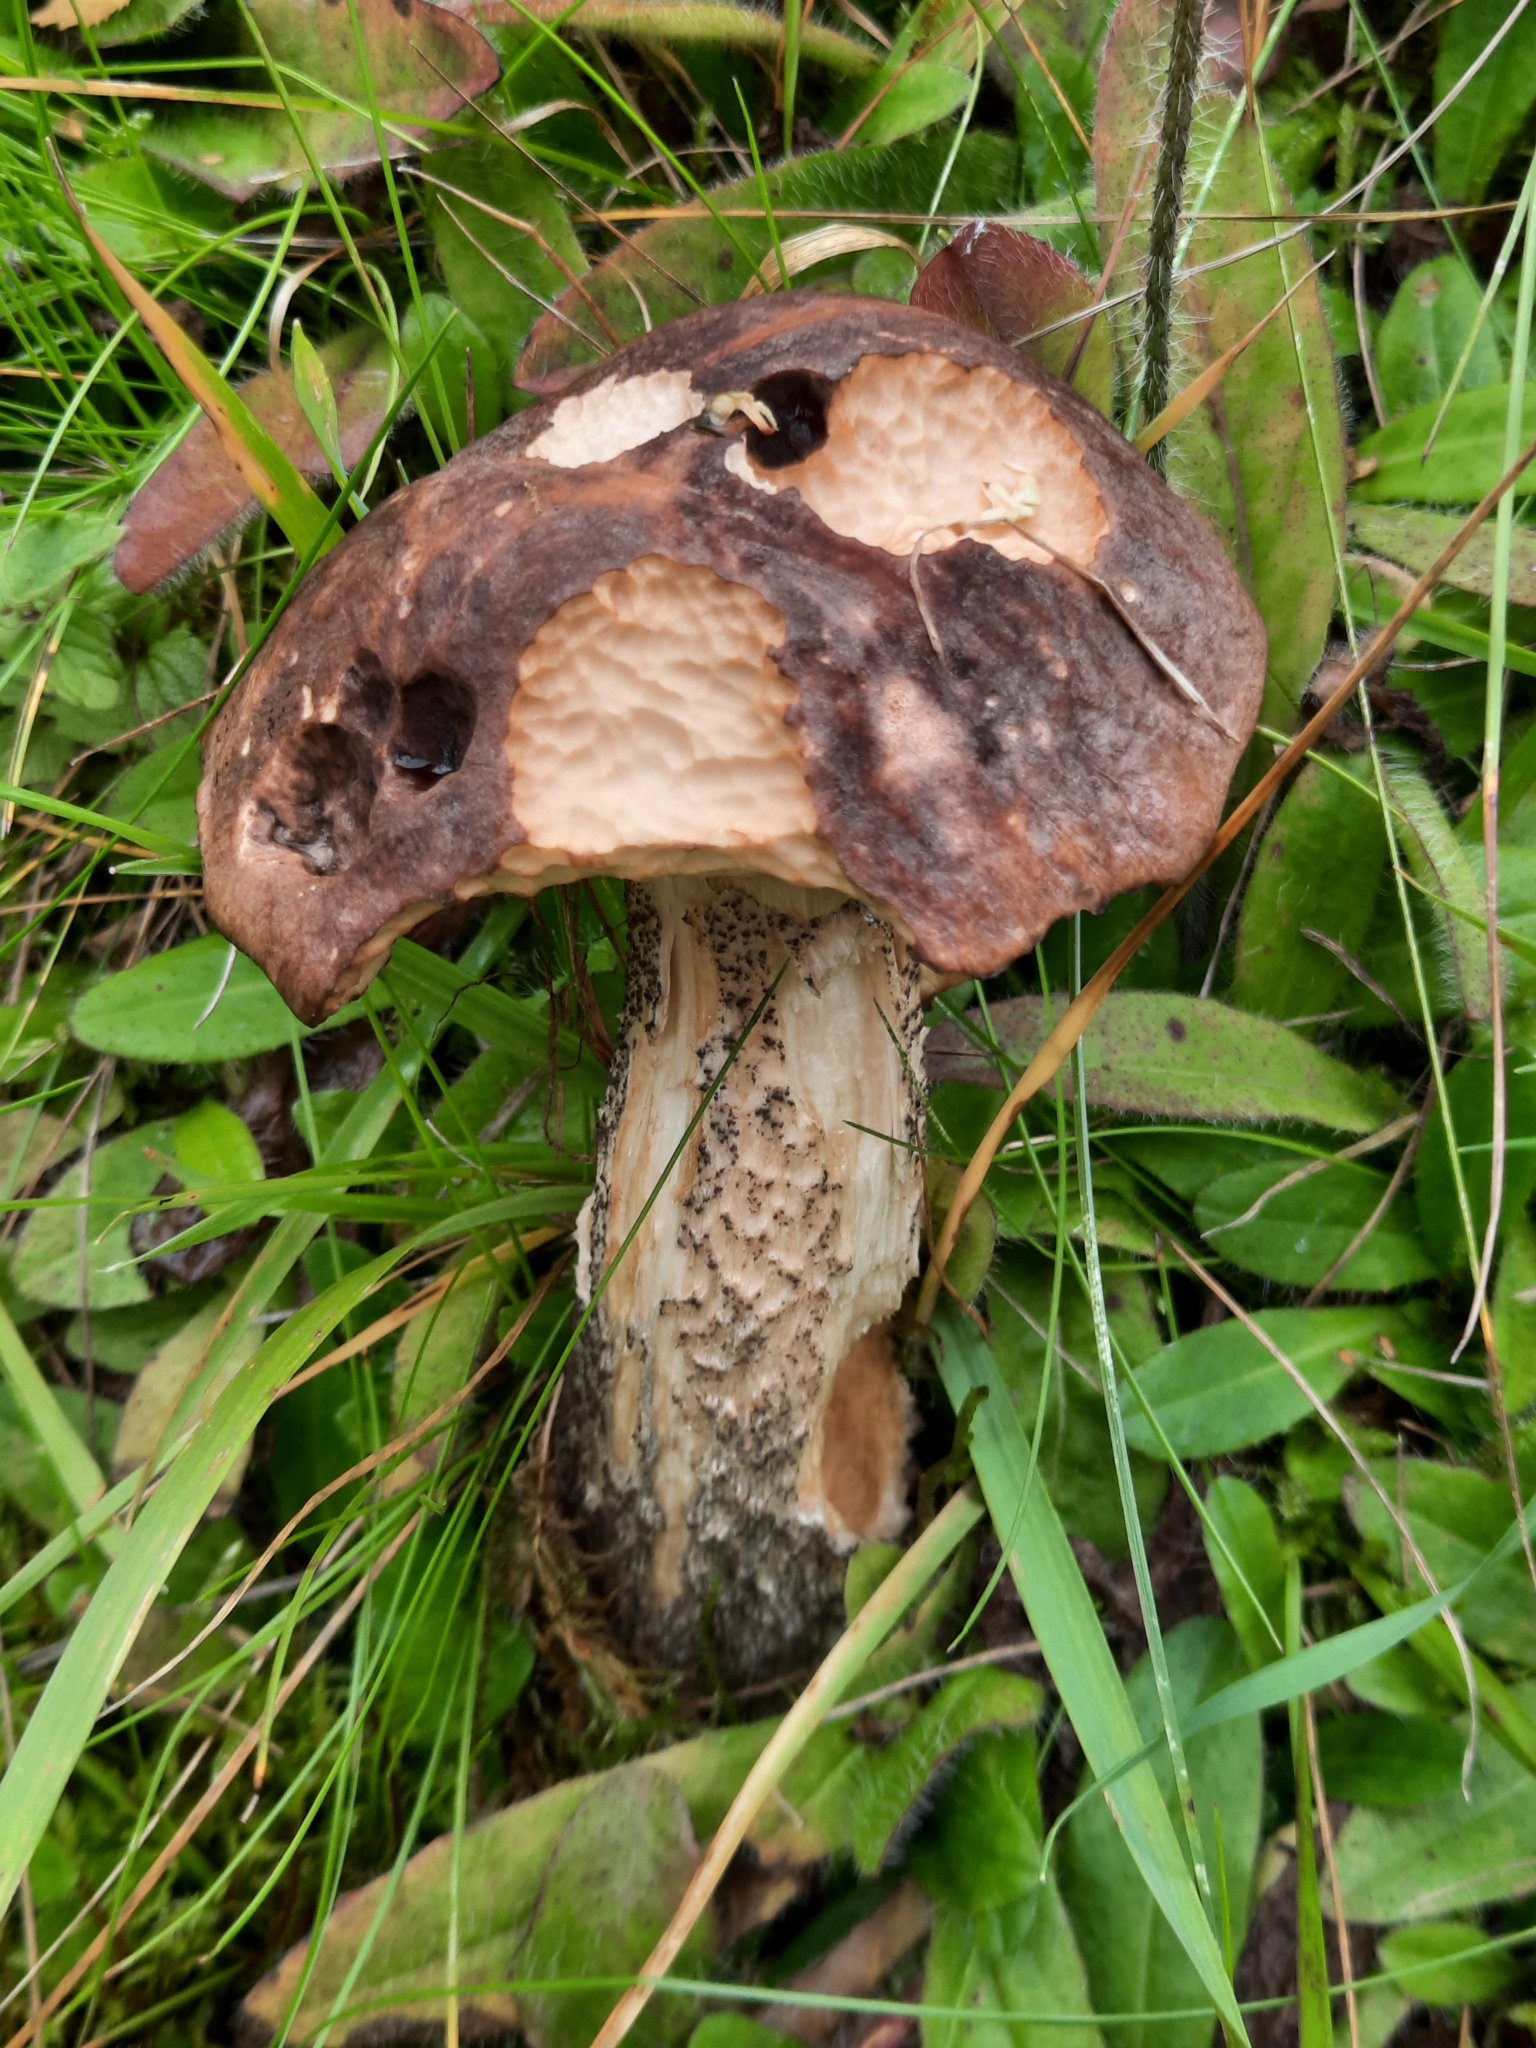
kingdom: Fungi
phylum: Basidiomycota
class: Agaricomycetes
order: Boletales
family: Boletaceae
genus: Leccinum
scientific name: Leccinum scabrum
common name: Blushing bolete
